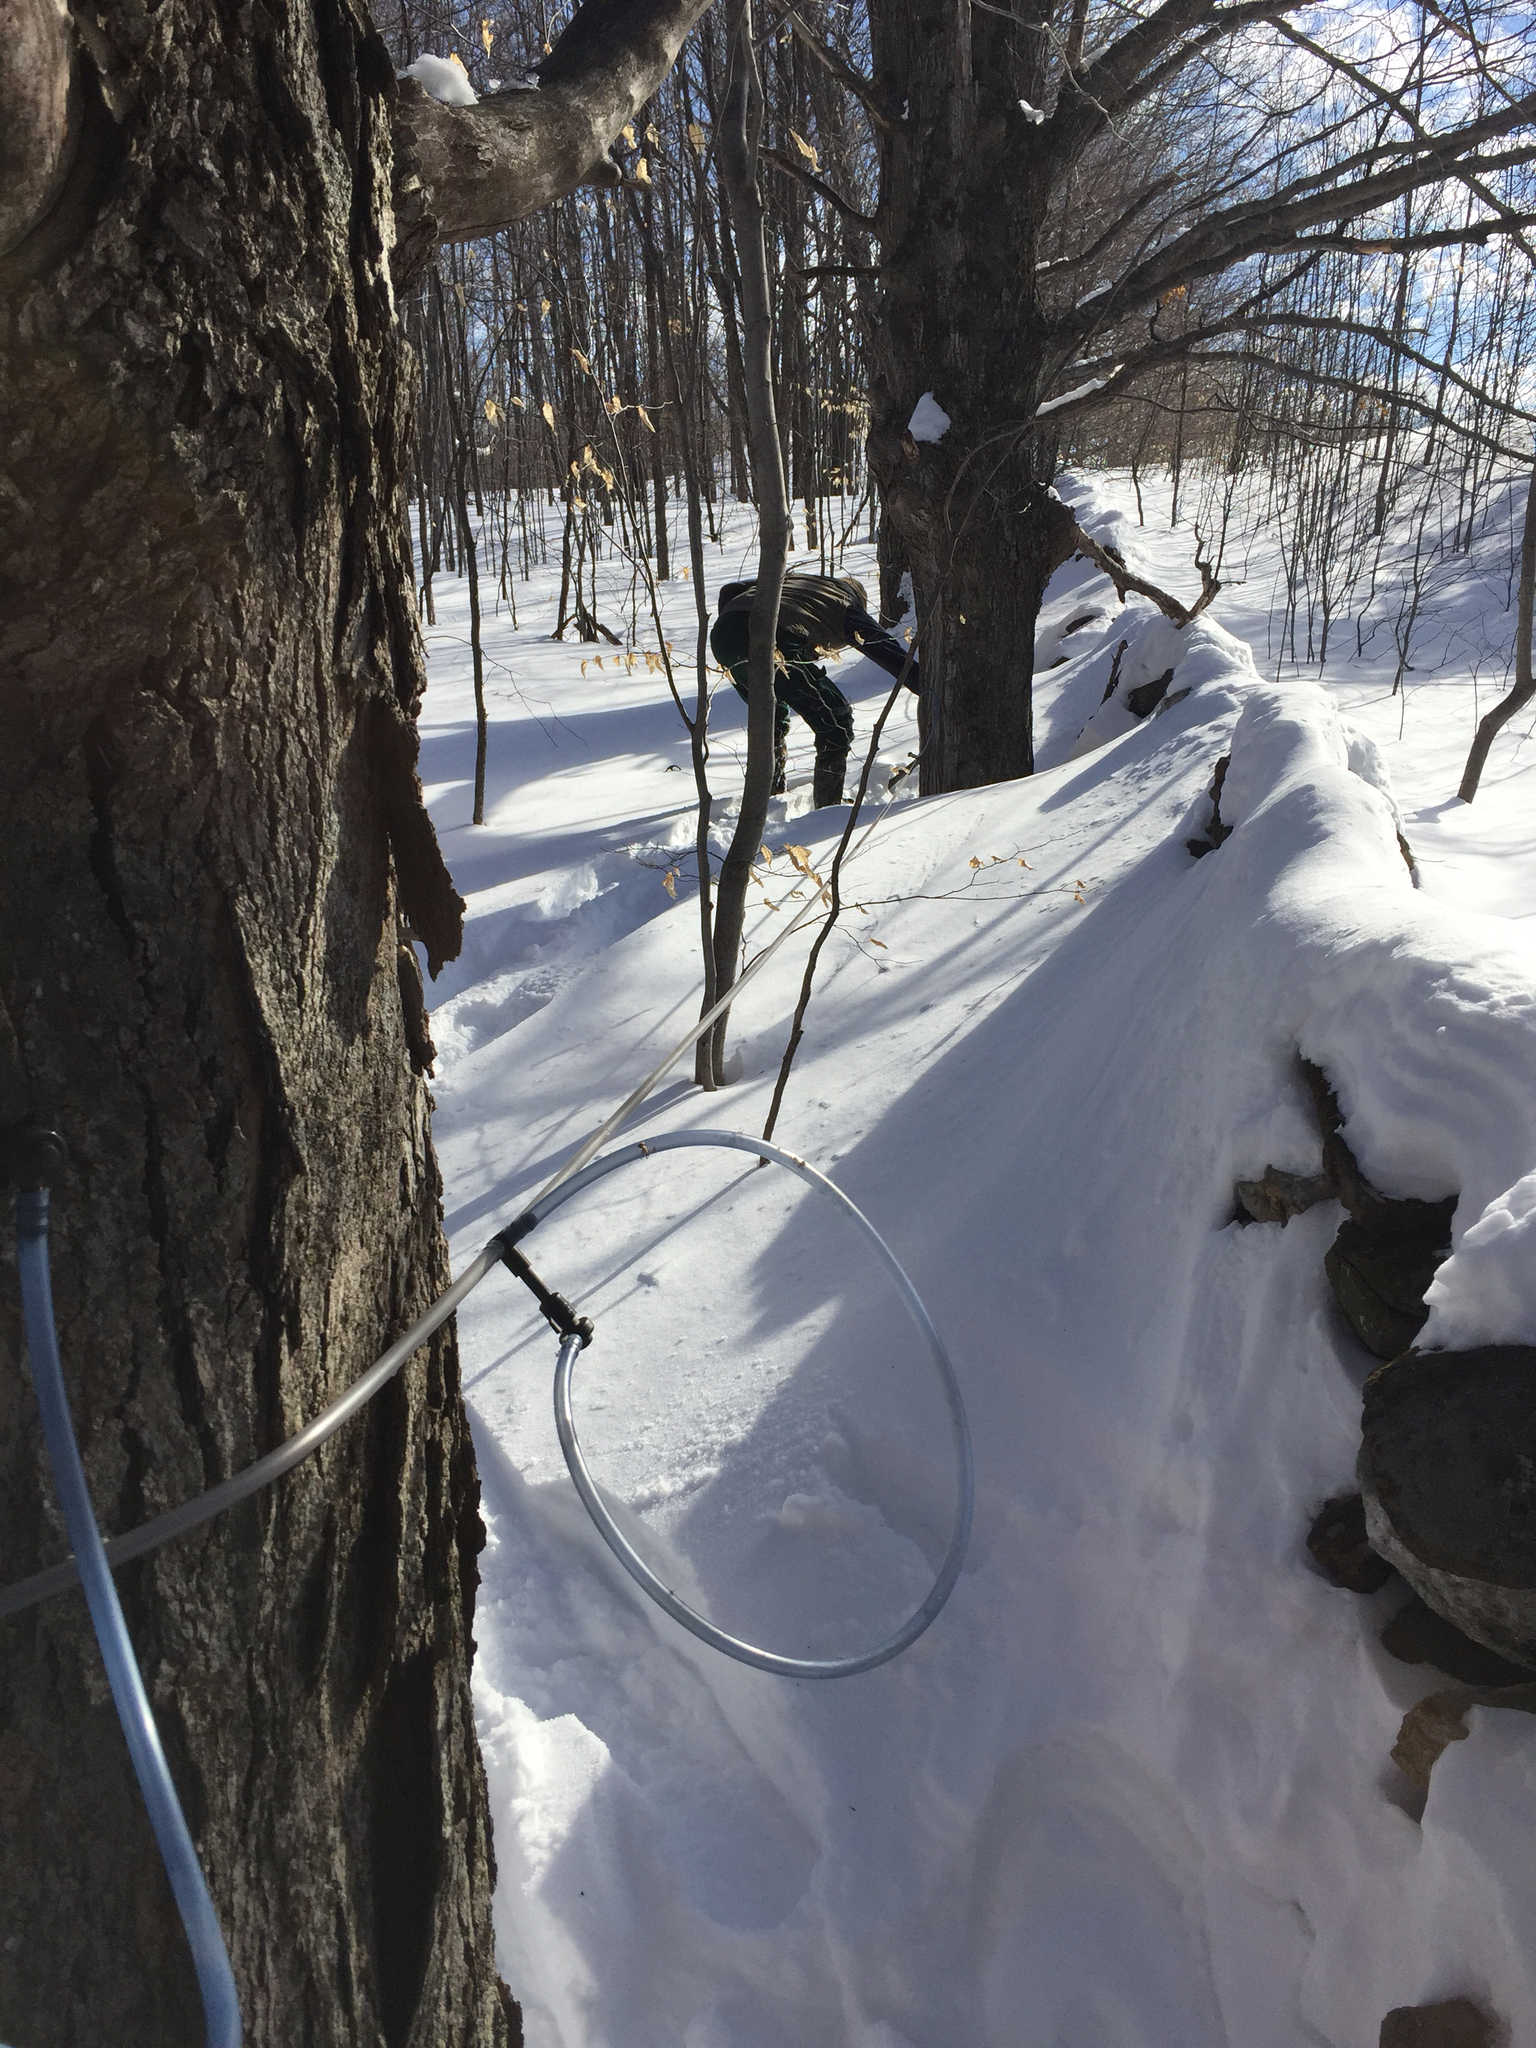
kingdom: Plantae
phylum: Tracheophyta
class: Magnoliopsida
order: Sapindales
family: Sapindaceae
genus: Acer
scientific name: Acer saccharum
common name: Sugar maple
